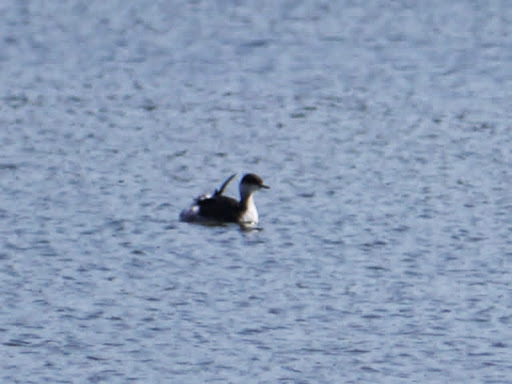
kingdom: Animalia
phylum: Chordata
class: Aves
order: Podicipediformes
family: Podicipedidae
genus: Podiceps
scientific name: Podiceps nigricollis
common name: Black-necked grebe
